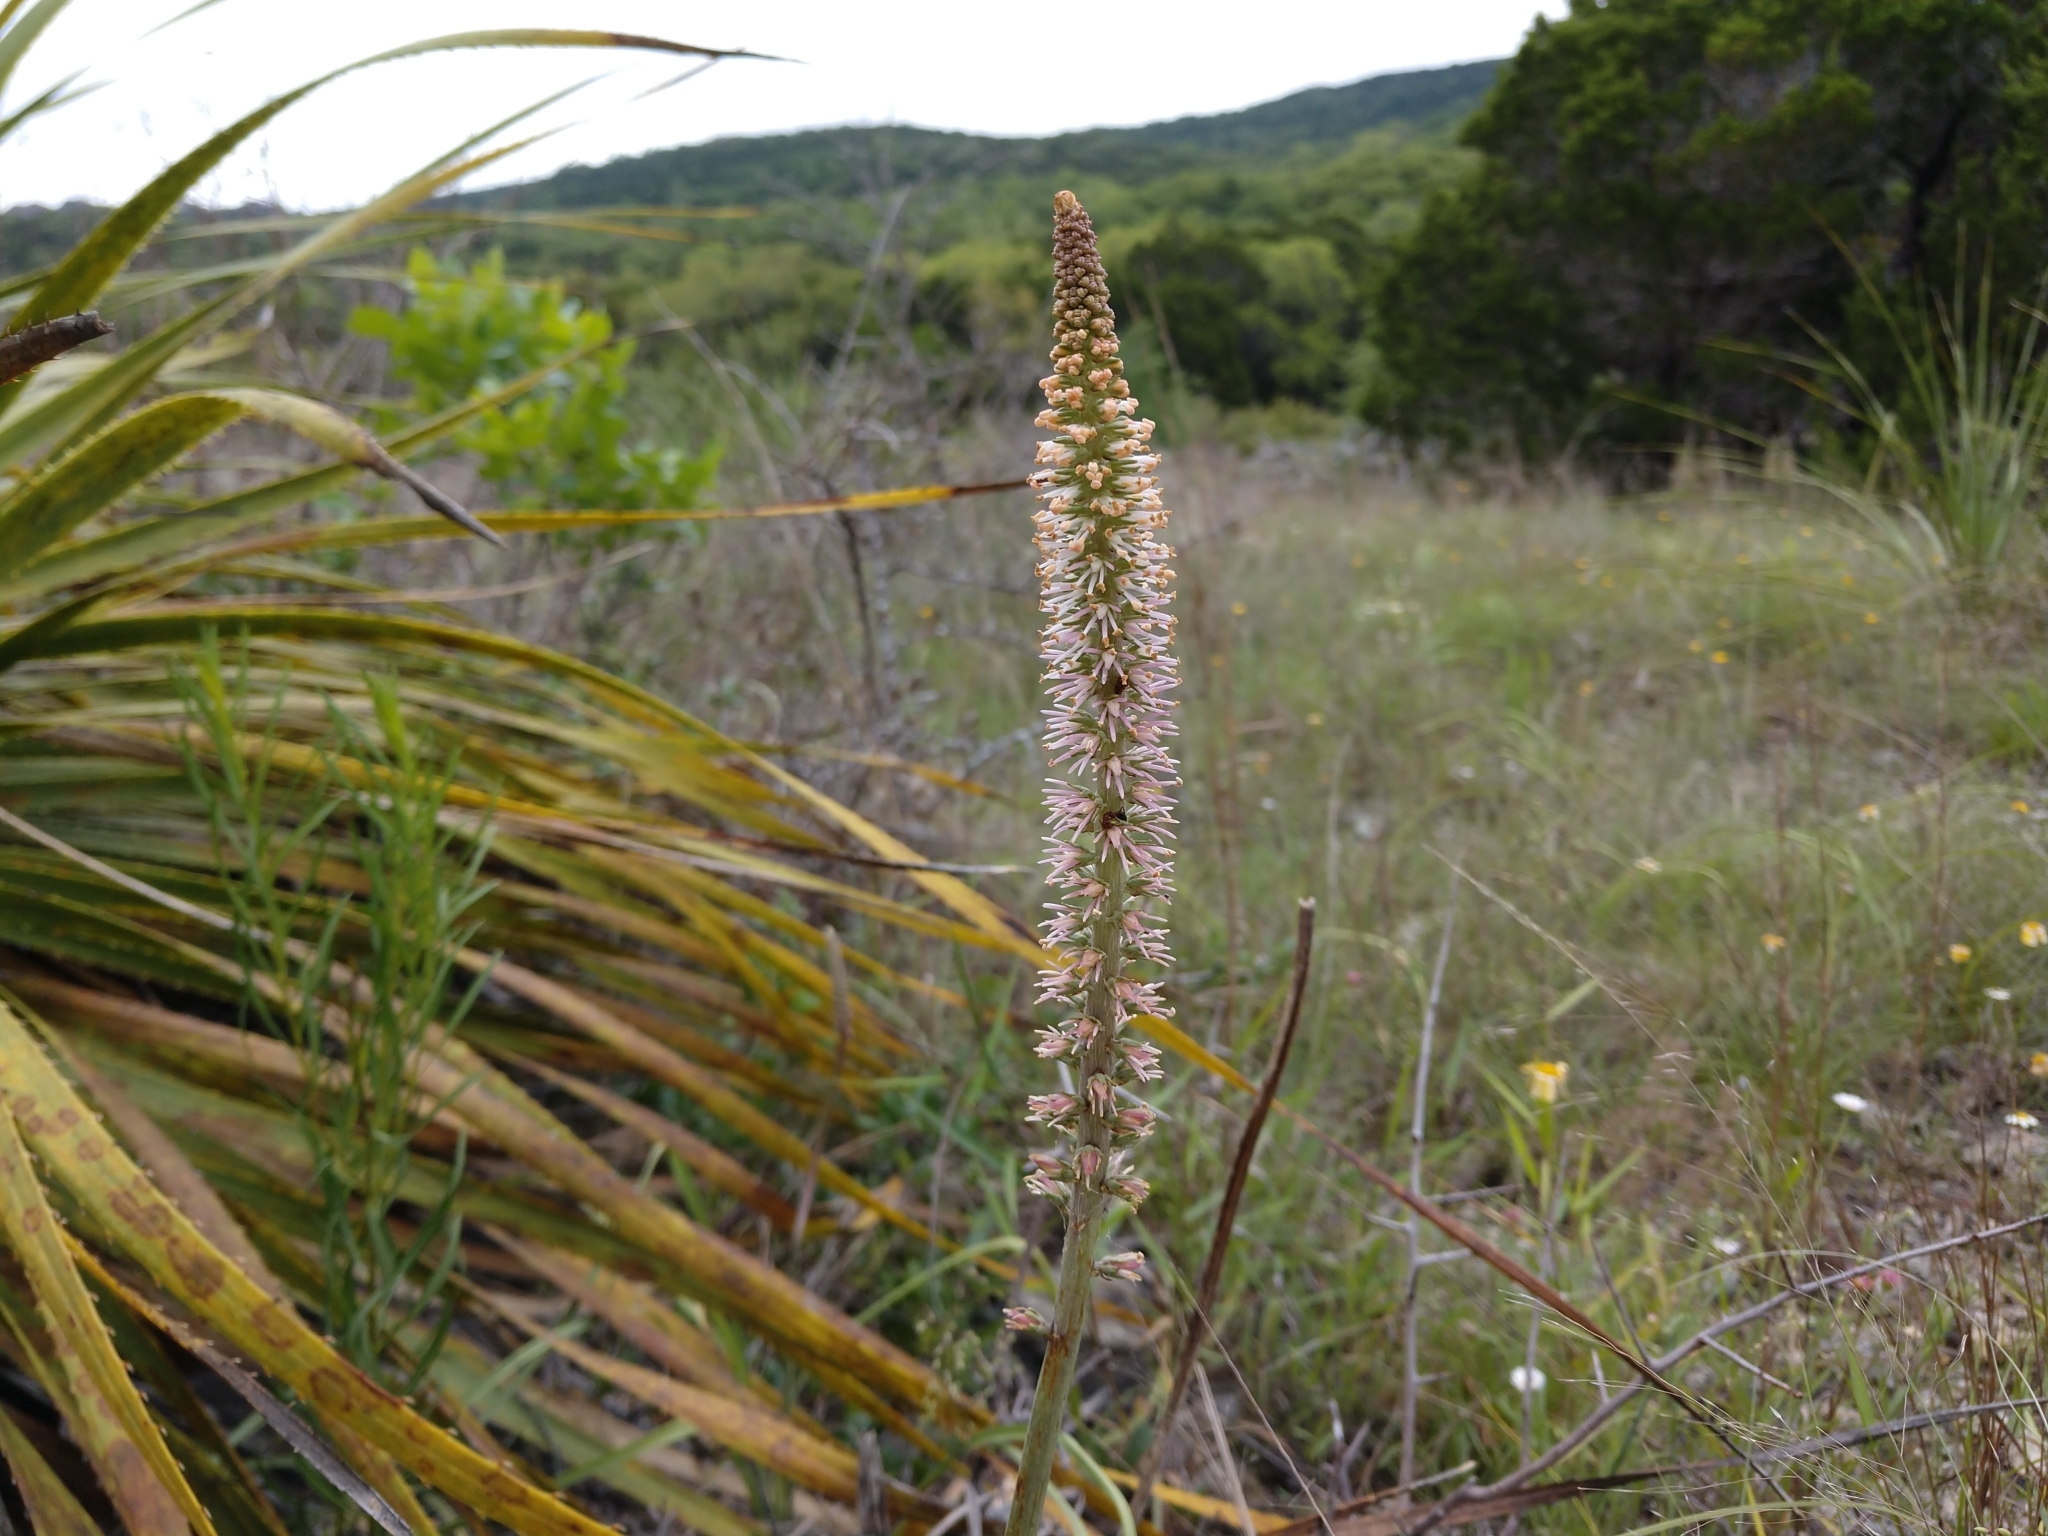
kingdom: Plantae
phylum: Tracheophyta
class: Liliopsida
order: Liliales
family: Melanthiaceae
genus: Schoenocaulon
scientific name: Schoenocaulon texanum
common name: Texas feather-shank
